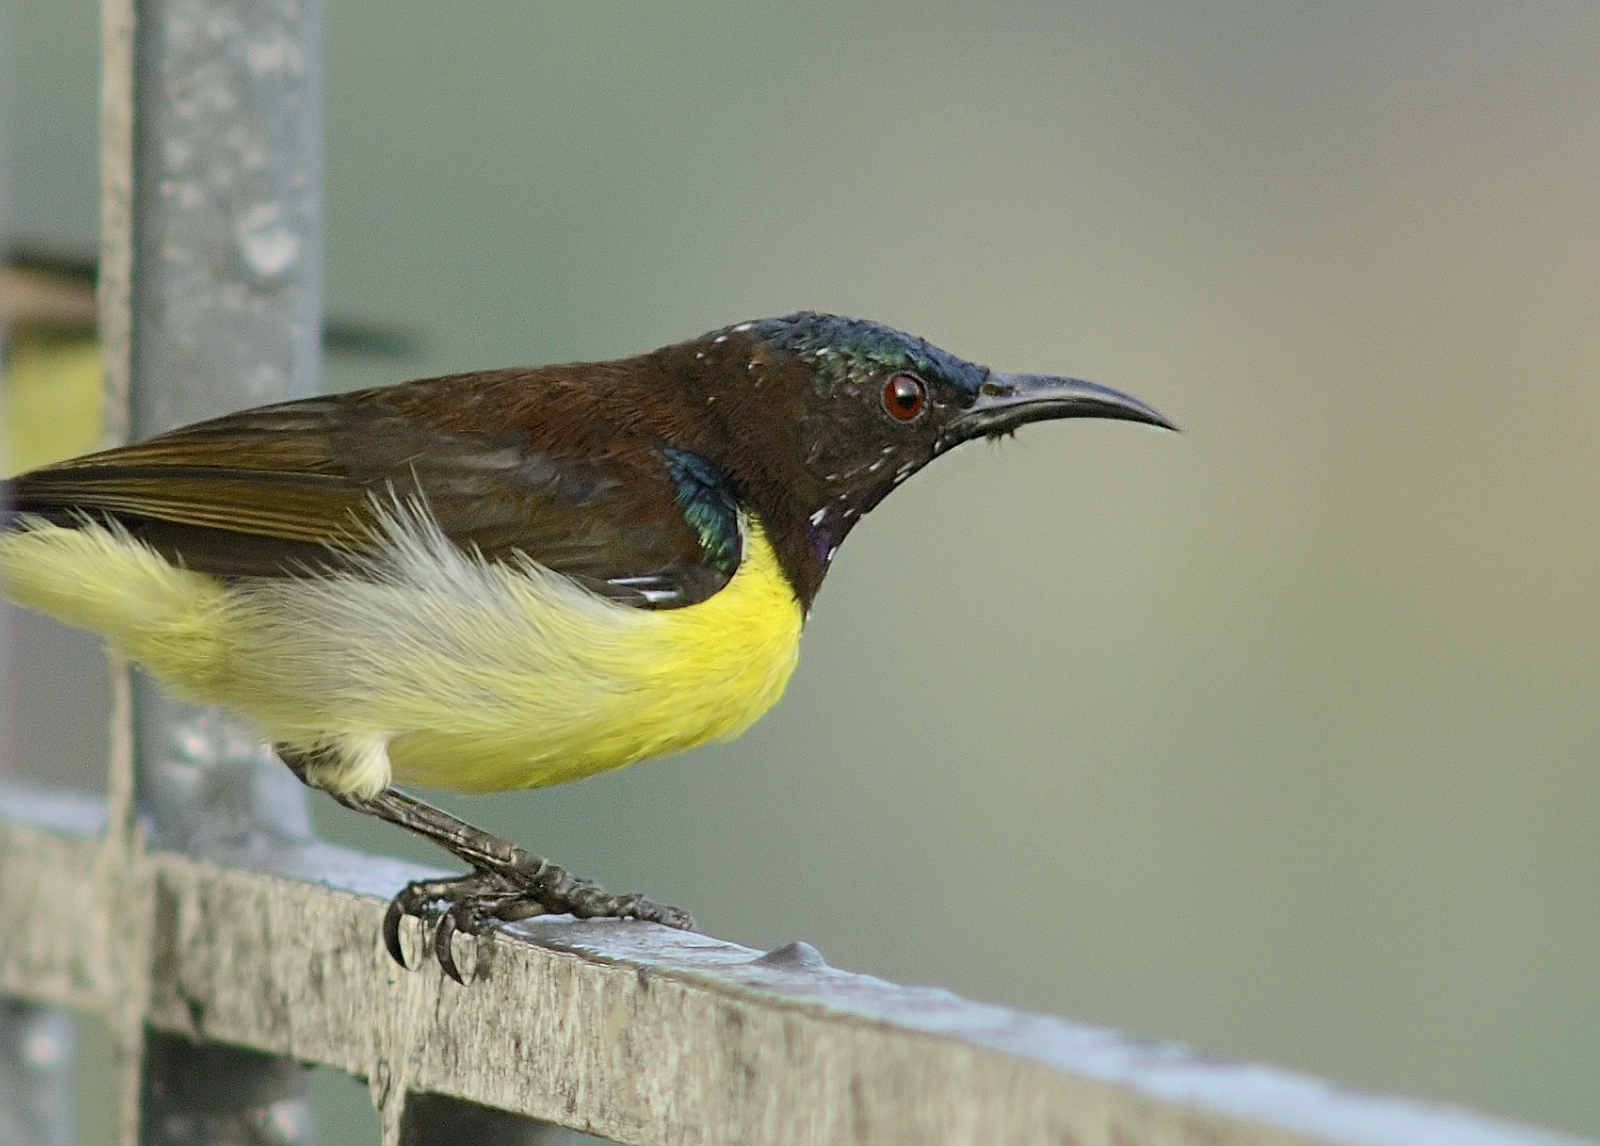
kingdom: Animalia
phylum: Chordata
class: Aves
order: Passeriformes
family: Nectariniidae
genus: Leptocoma
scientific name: Leptocoma zeylonica
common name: Purple-rumped sunbird
